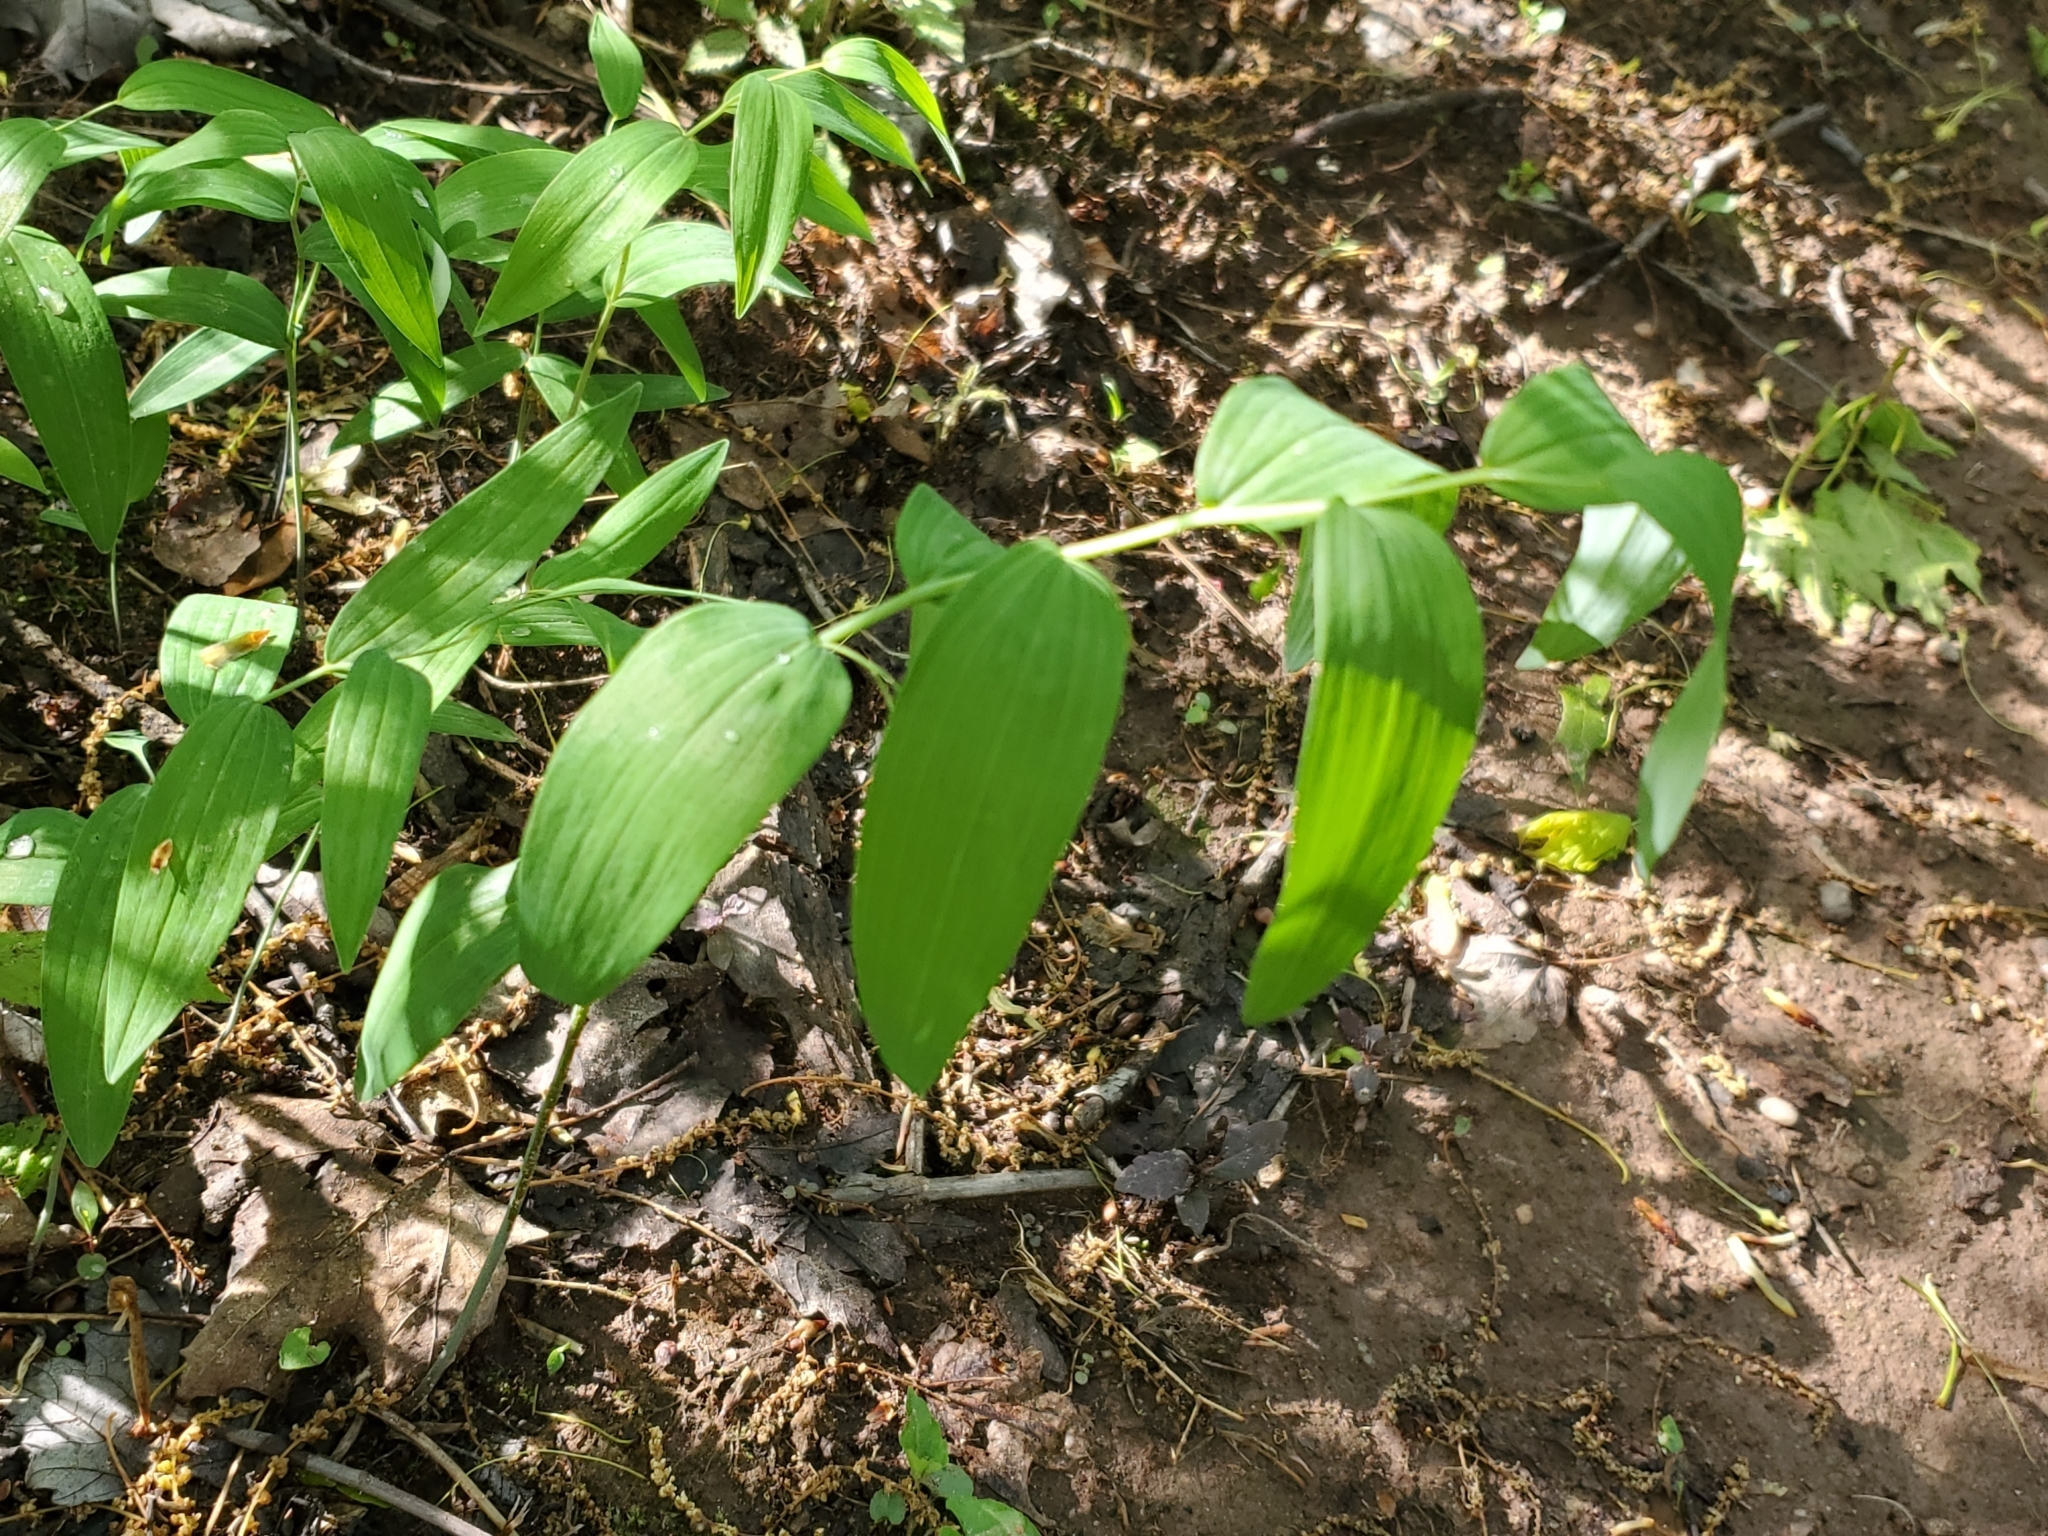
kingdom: Plantae
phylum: Tracheophyta
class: Liliopsida
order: Asparagales
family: Asparagaceae
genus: Polygonatum
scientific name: Polygonatum biflorum
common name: American solomon's-seal
